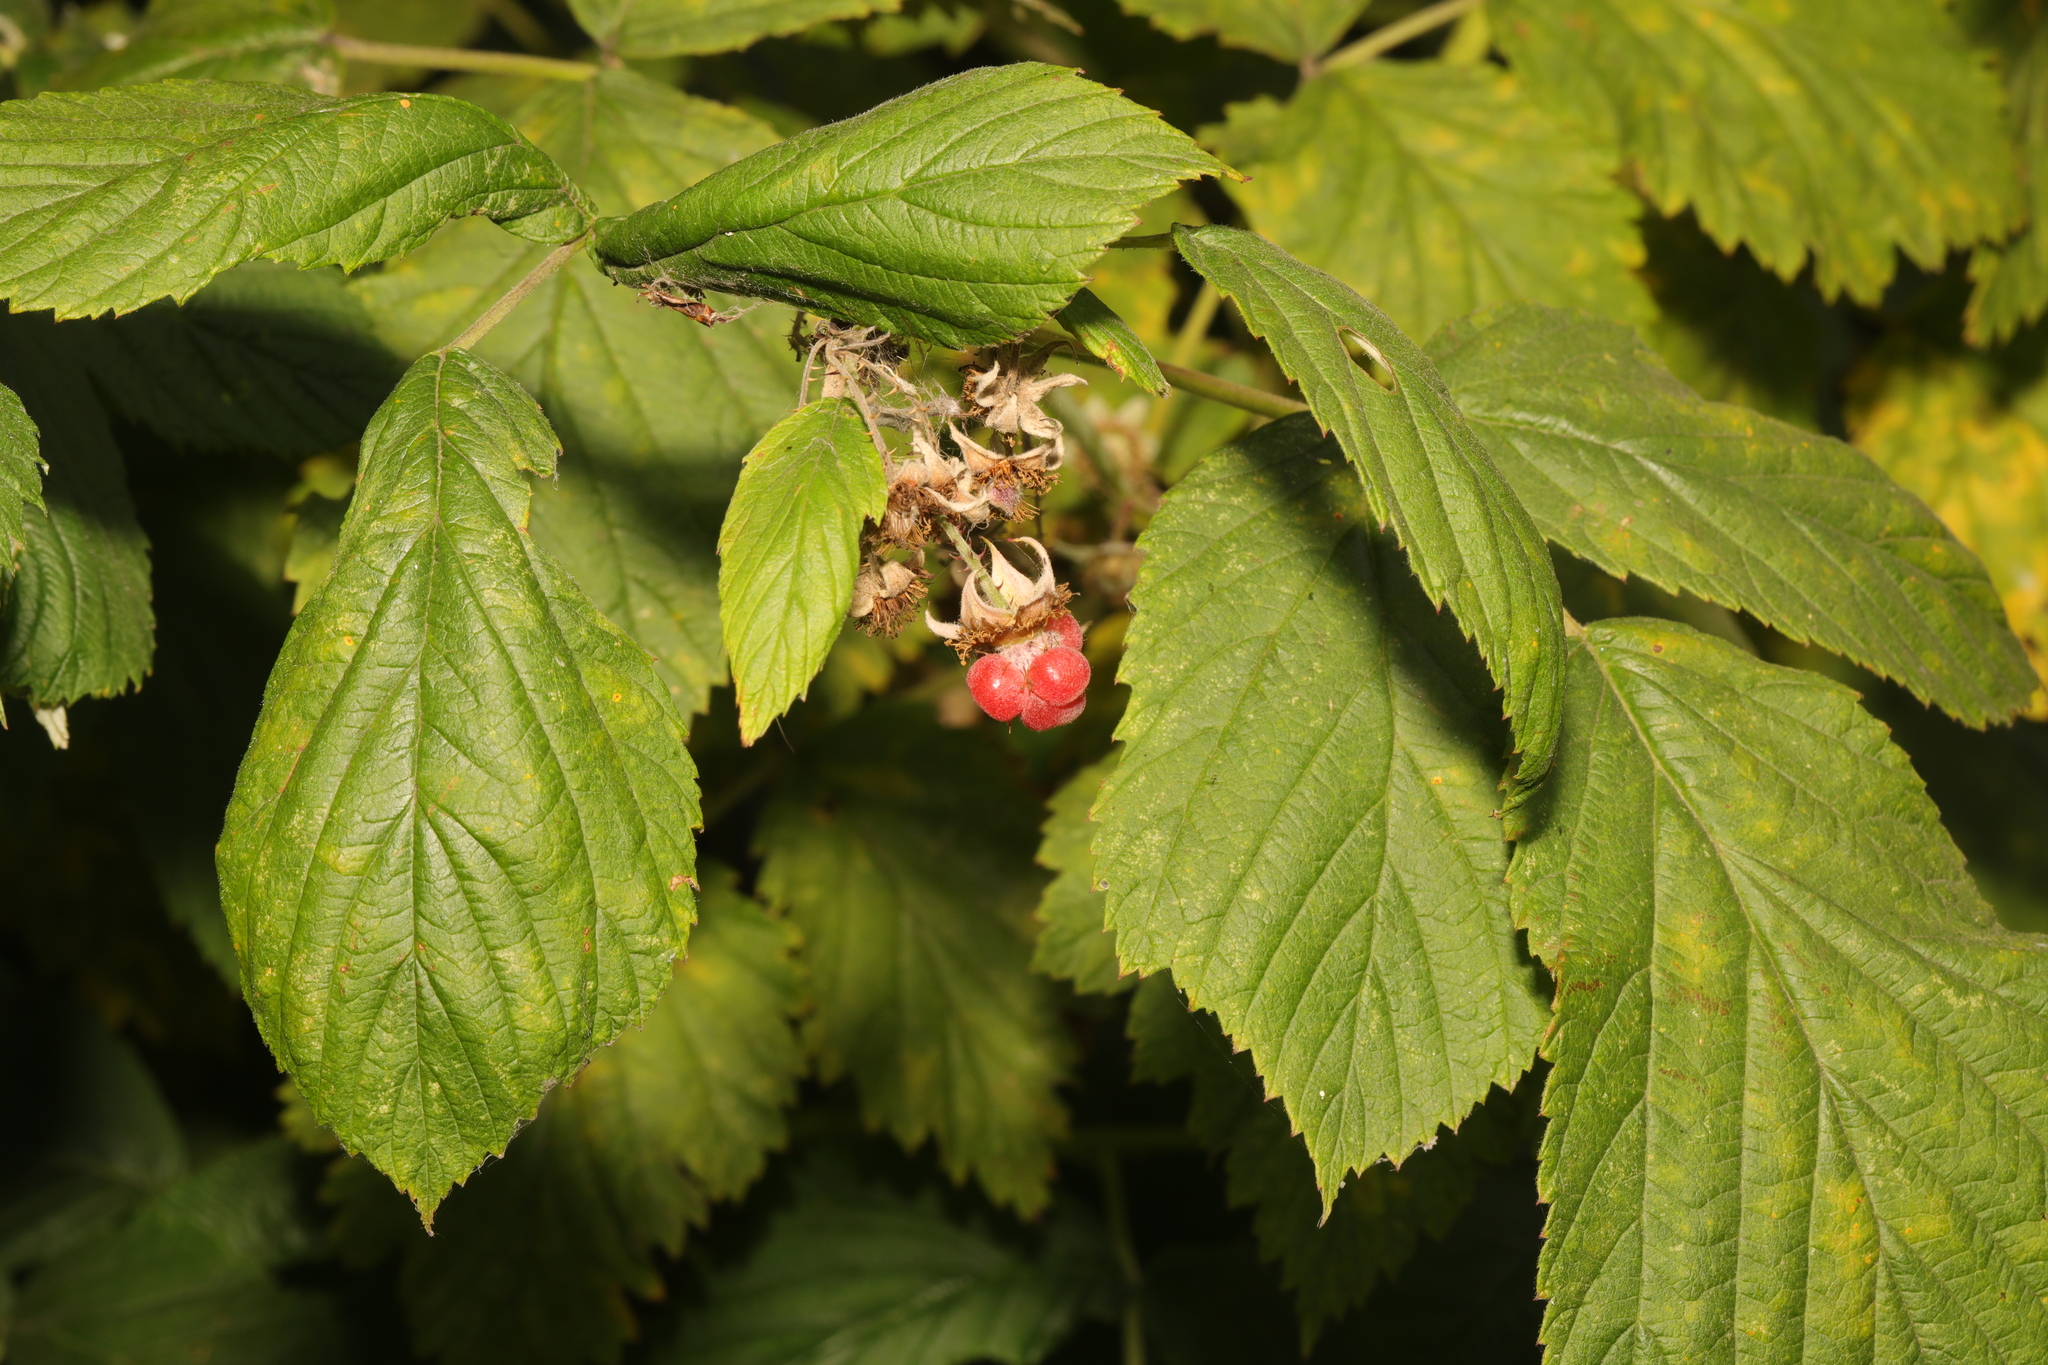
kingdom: Plantae
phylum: Tracheophyta
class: Magnoliopsida
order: Rosales
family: Rosaceae
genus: Rubus
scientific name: Rubus idaeus
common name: Raspberry
